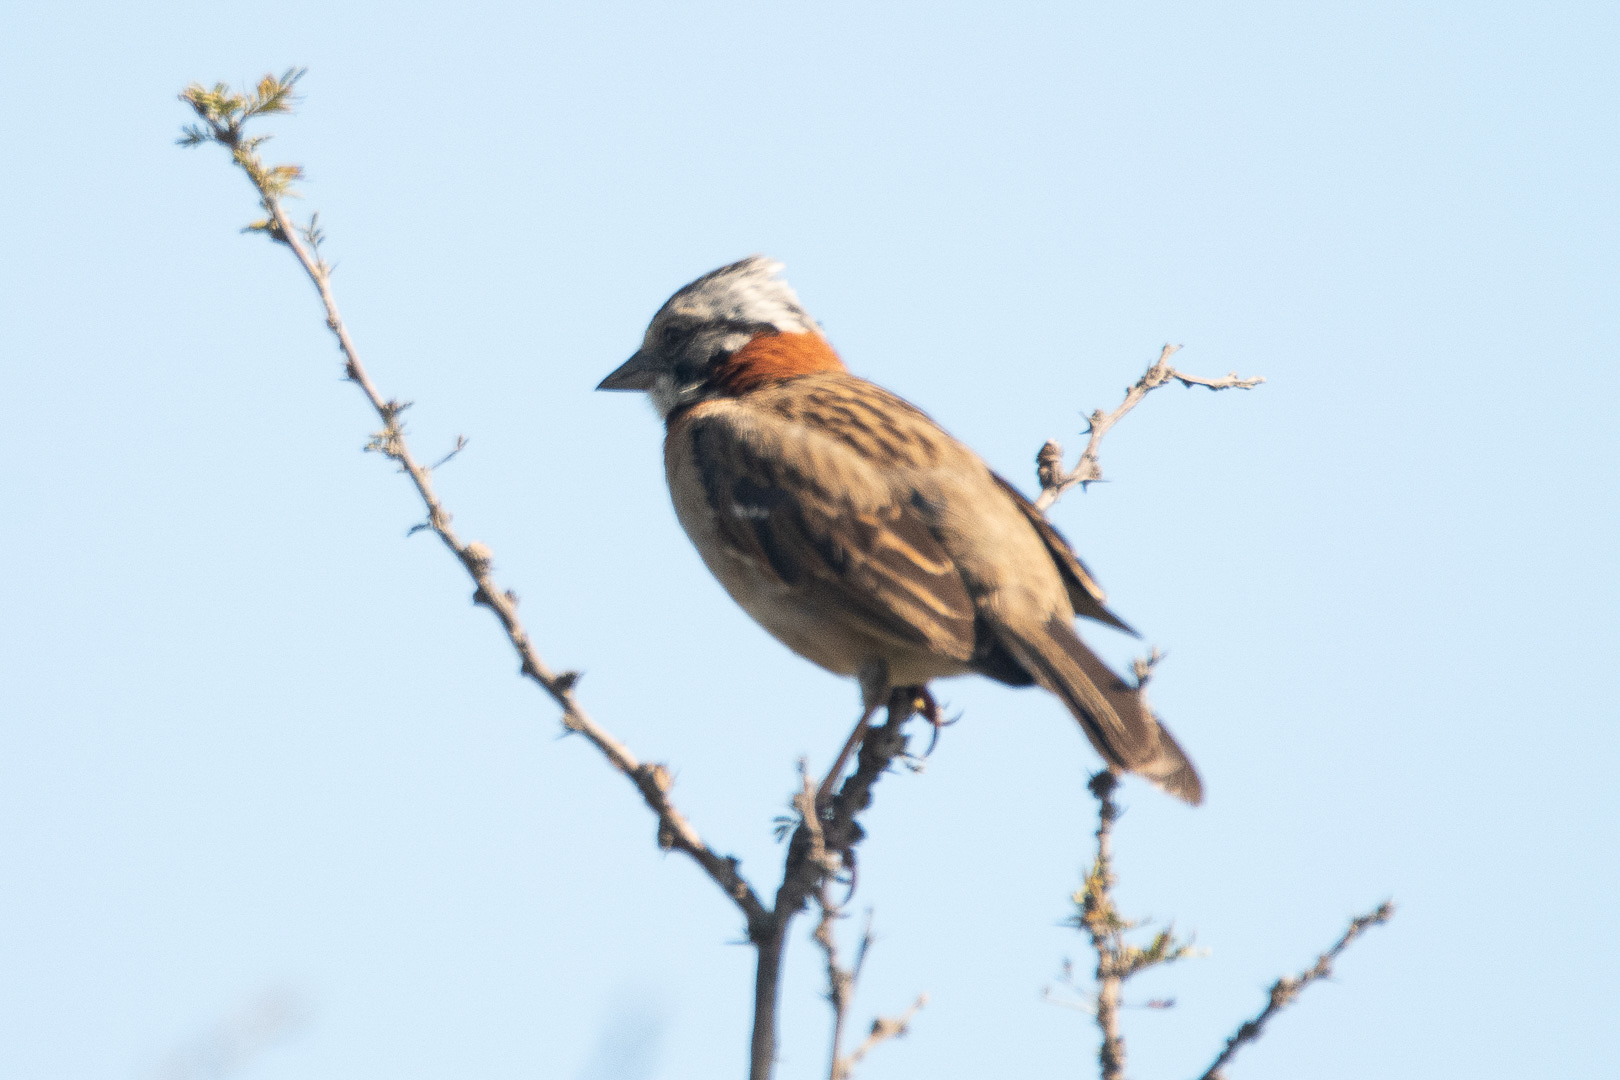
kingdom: Animalia
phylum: Chordata
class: Aves
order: Passeriformes
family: Passerellidae
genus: Zonotrichia
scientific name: Zonotrichia capensis
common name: Rufous-collared sparrow
